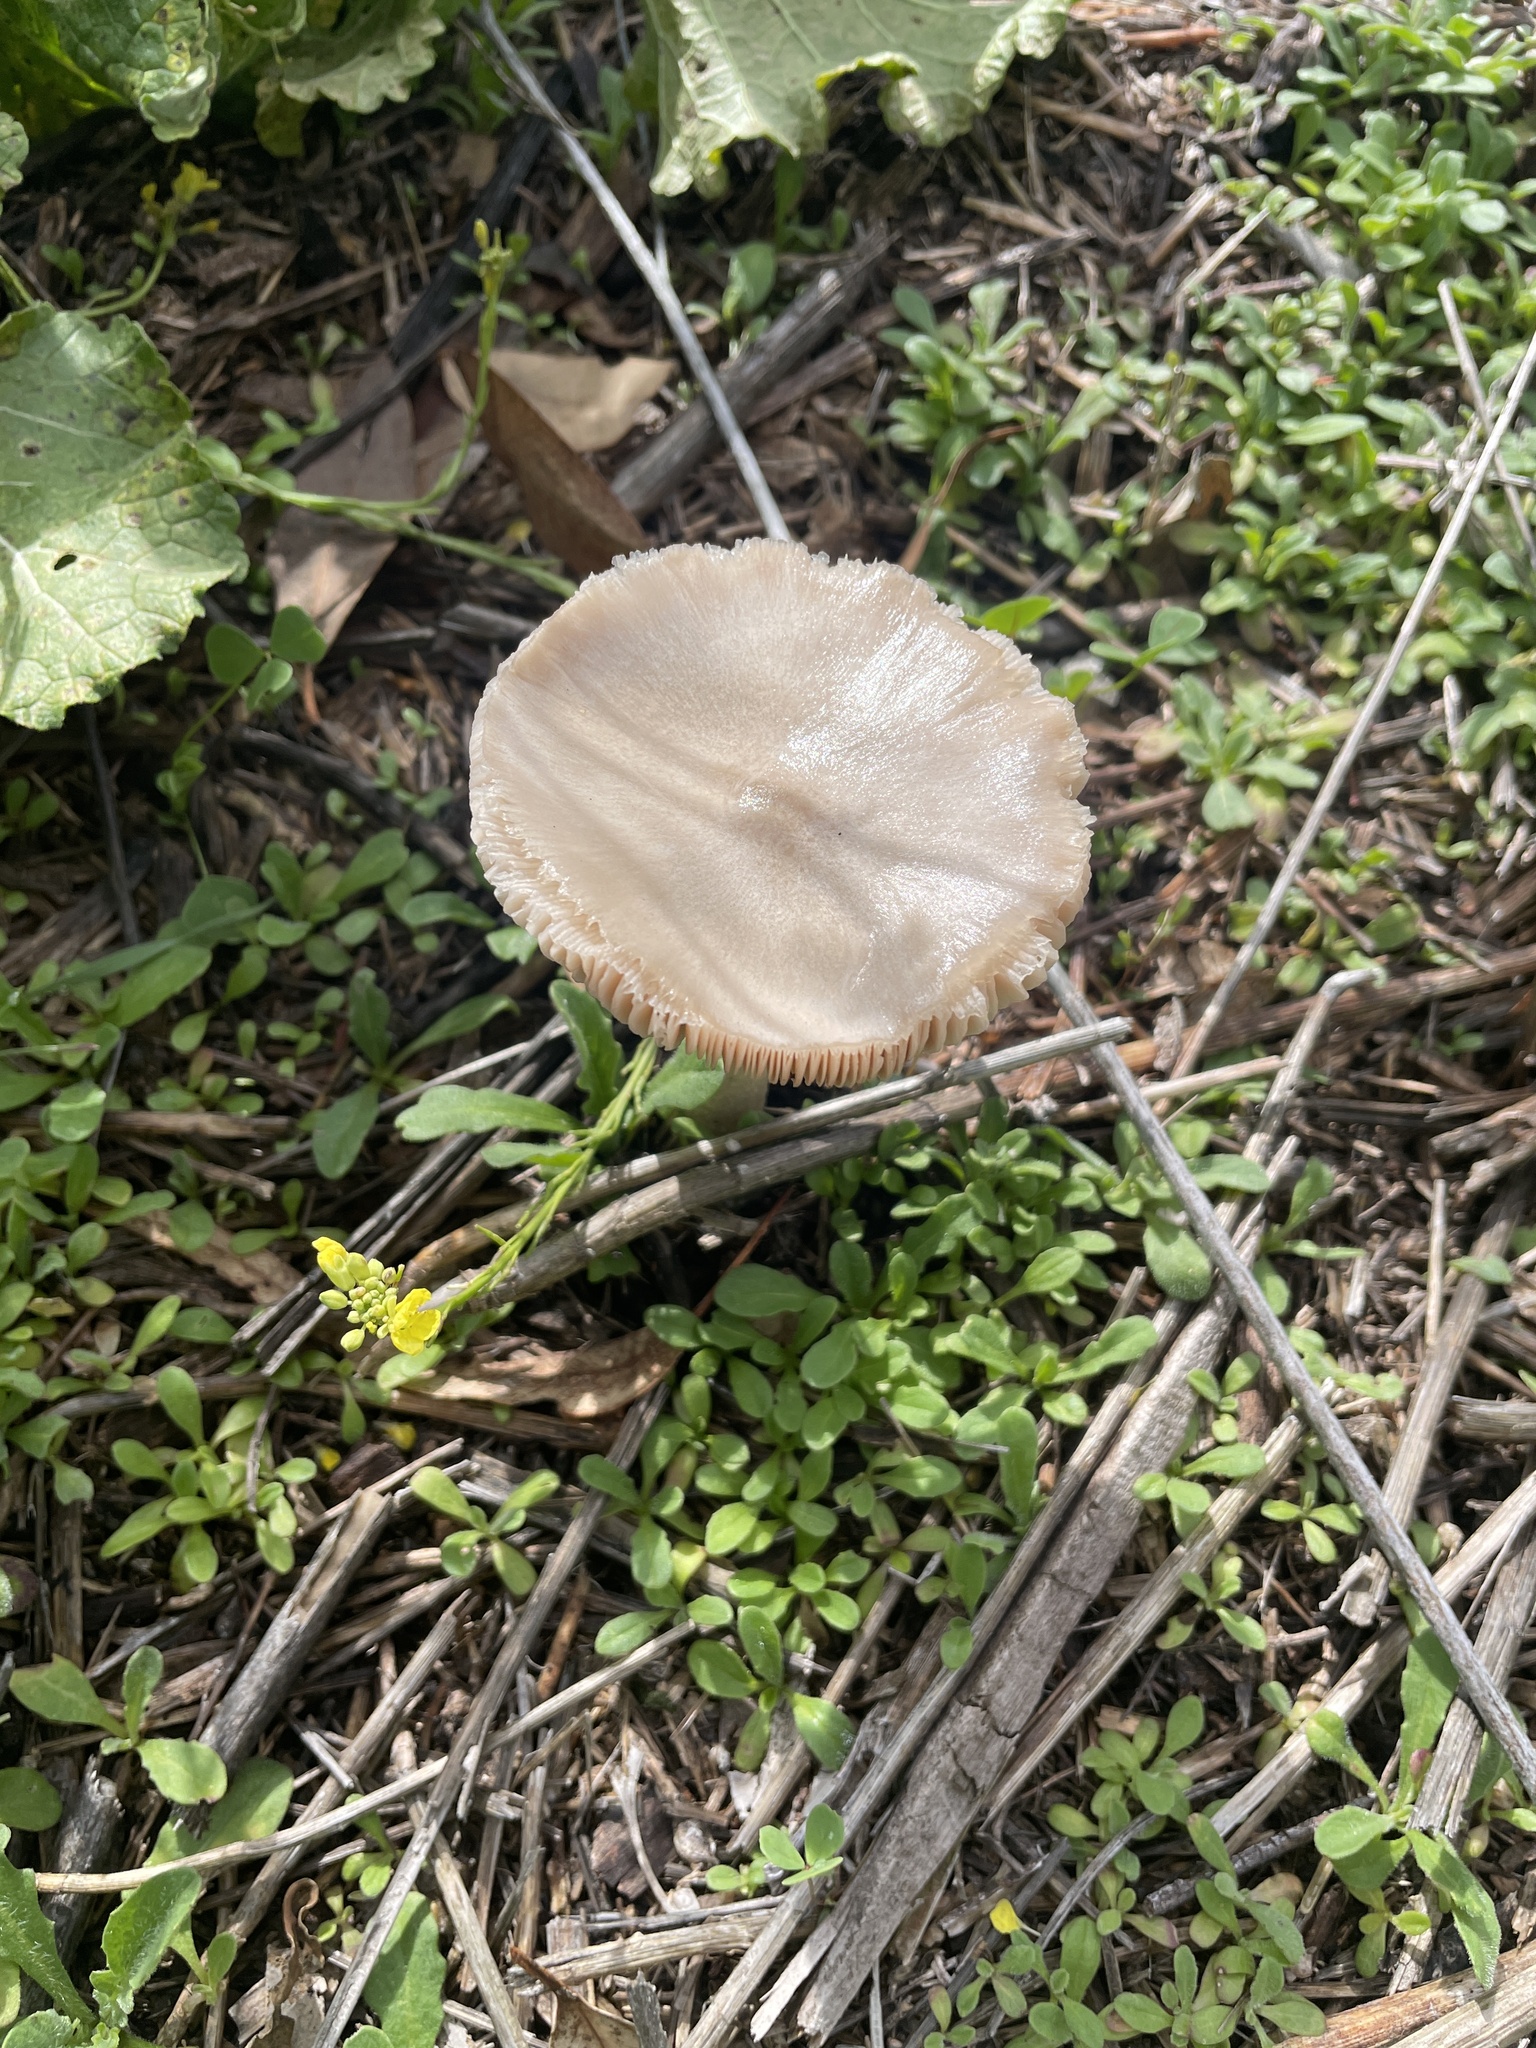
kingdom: Fungi
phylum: Basidiomycota
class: Agaricomycetes
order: Agaricales
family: Pluteaceae
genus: Volvopluteus
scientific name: Volvopluteus gloiocephalus
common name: Stubble rosegill
